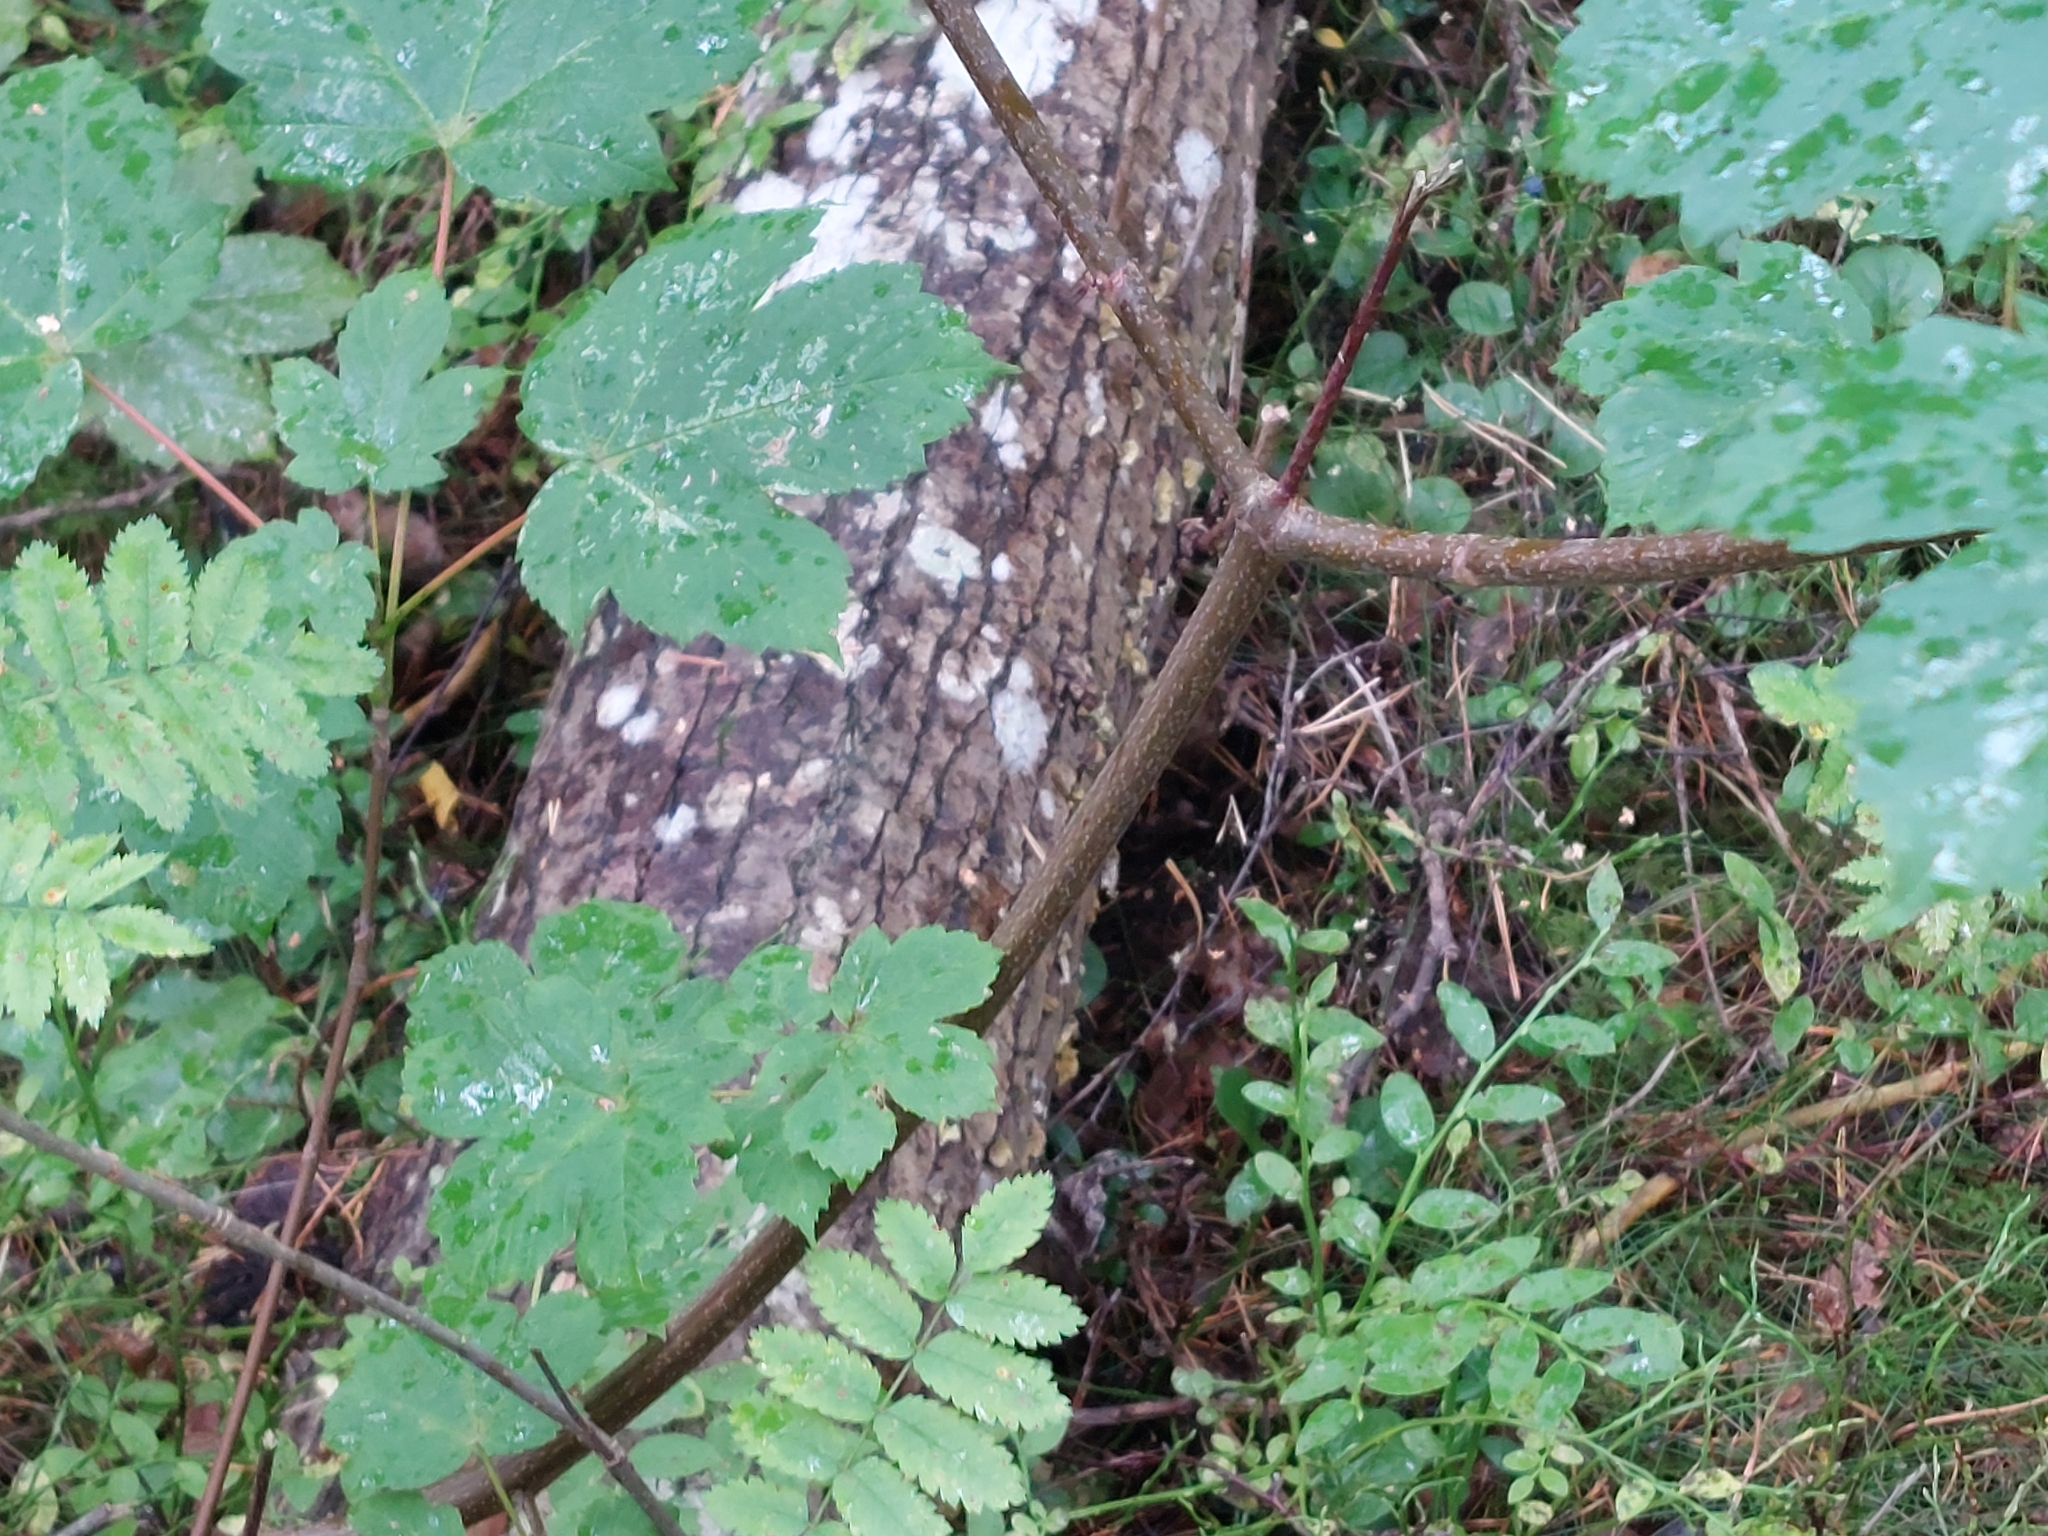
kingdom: Plantae
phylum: Tracheophyta
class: Magnoliopsida
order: Sapindales
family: Sapindaceae
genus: Acer
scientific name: Acer pseudoplatanus
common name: Sycamore
